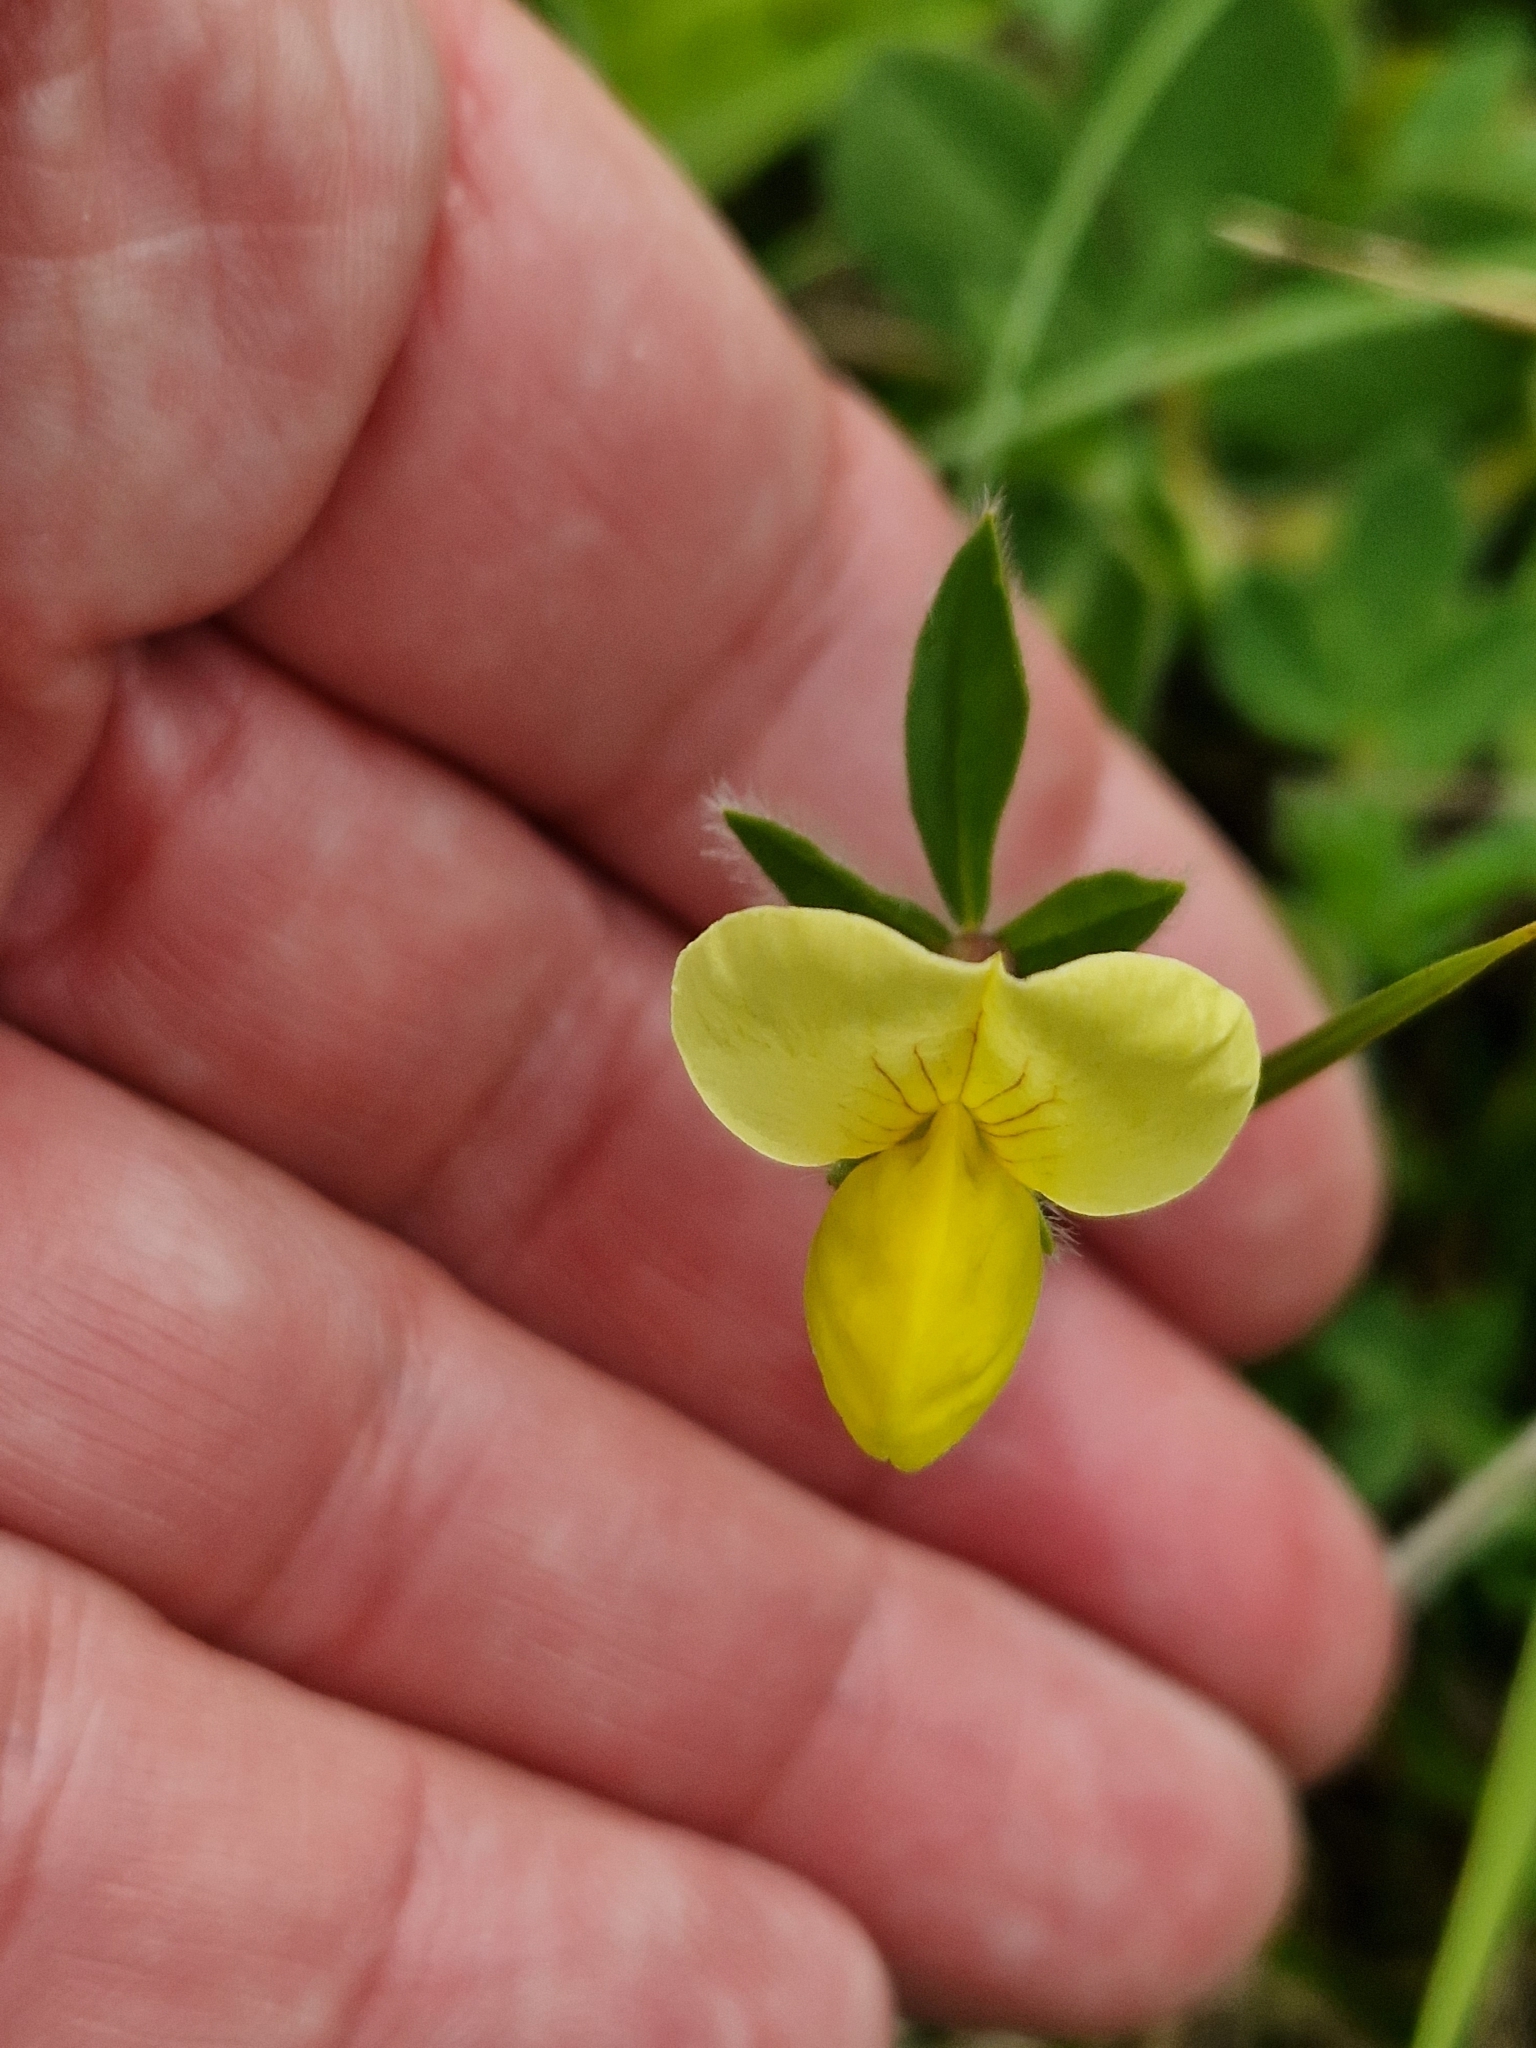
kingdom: Plantae
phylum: Tracheophyta
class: Magnoliopsida
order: Fabales
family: Fabaceae
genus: Lotus
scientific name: Lotus maritimus
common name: Dragon's-teeth
